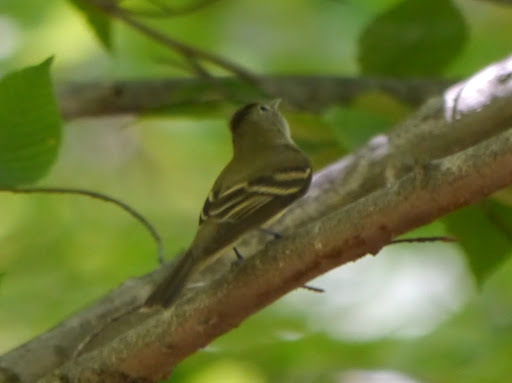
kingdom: Animalia
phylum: Chordata
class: Aves
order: Passeriformes
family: Tyrannidae
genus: Empidonax
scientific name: Empidonax virescens
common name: Acadian flycatcher
